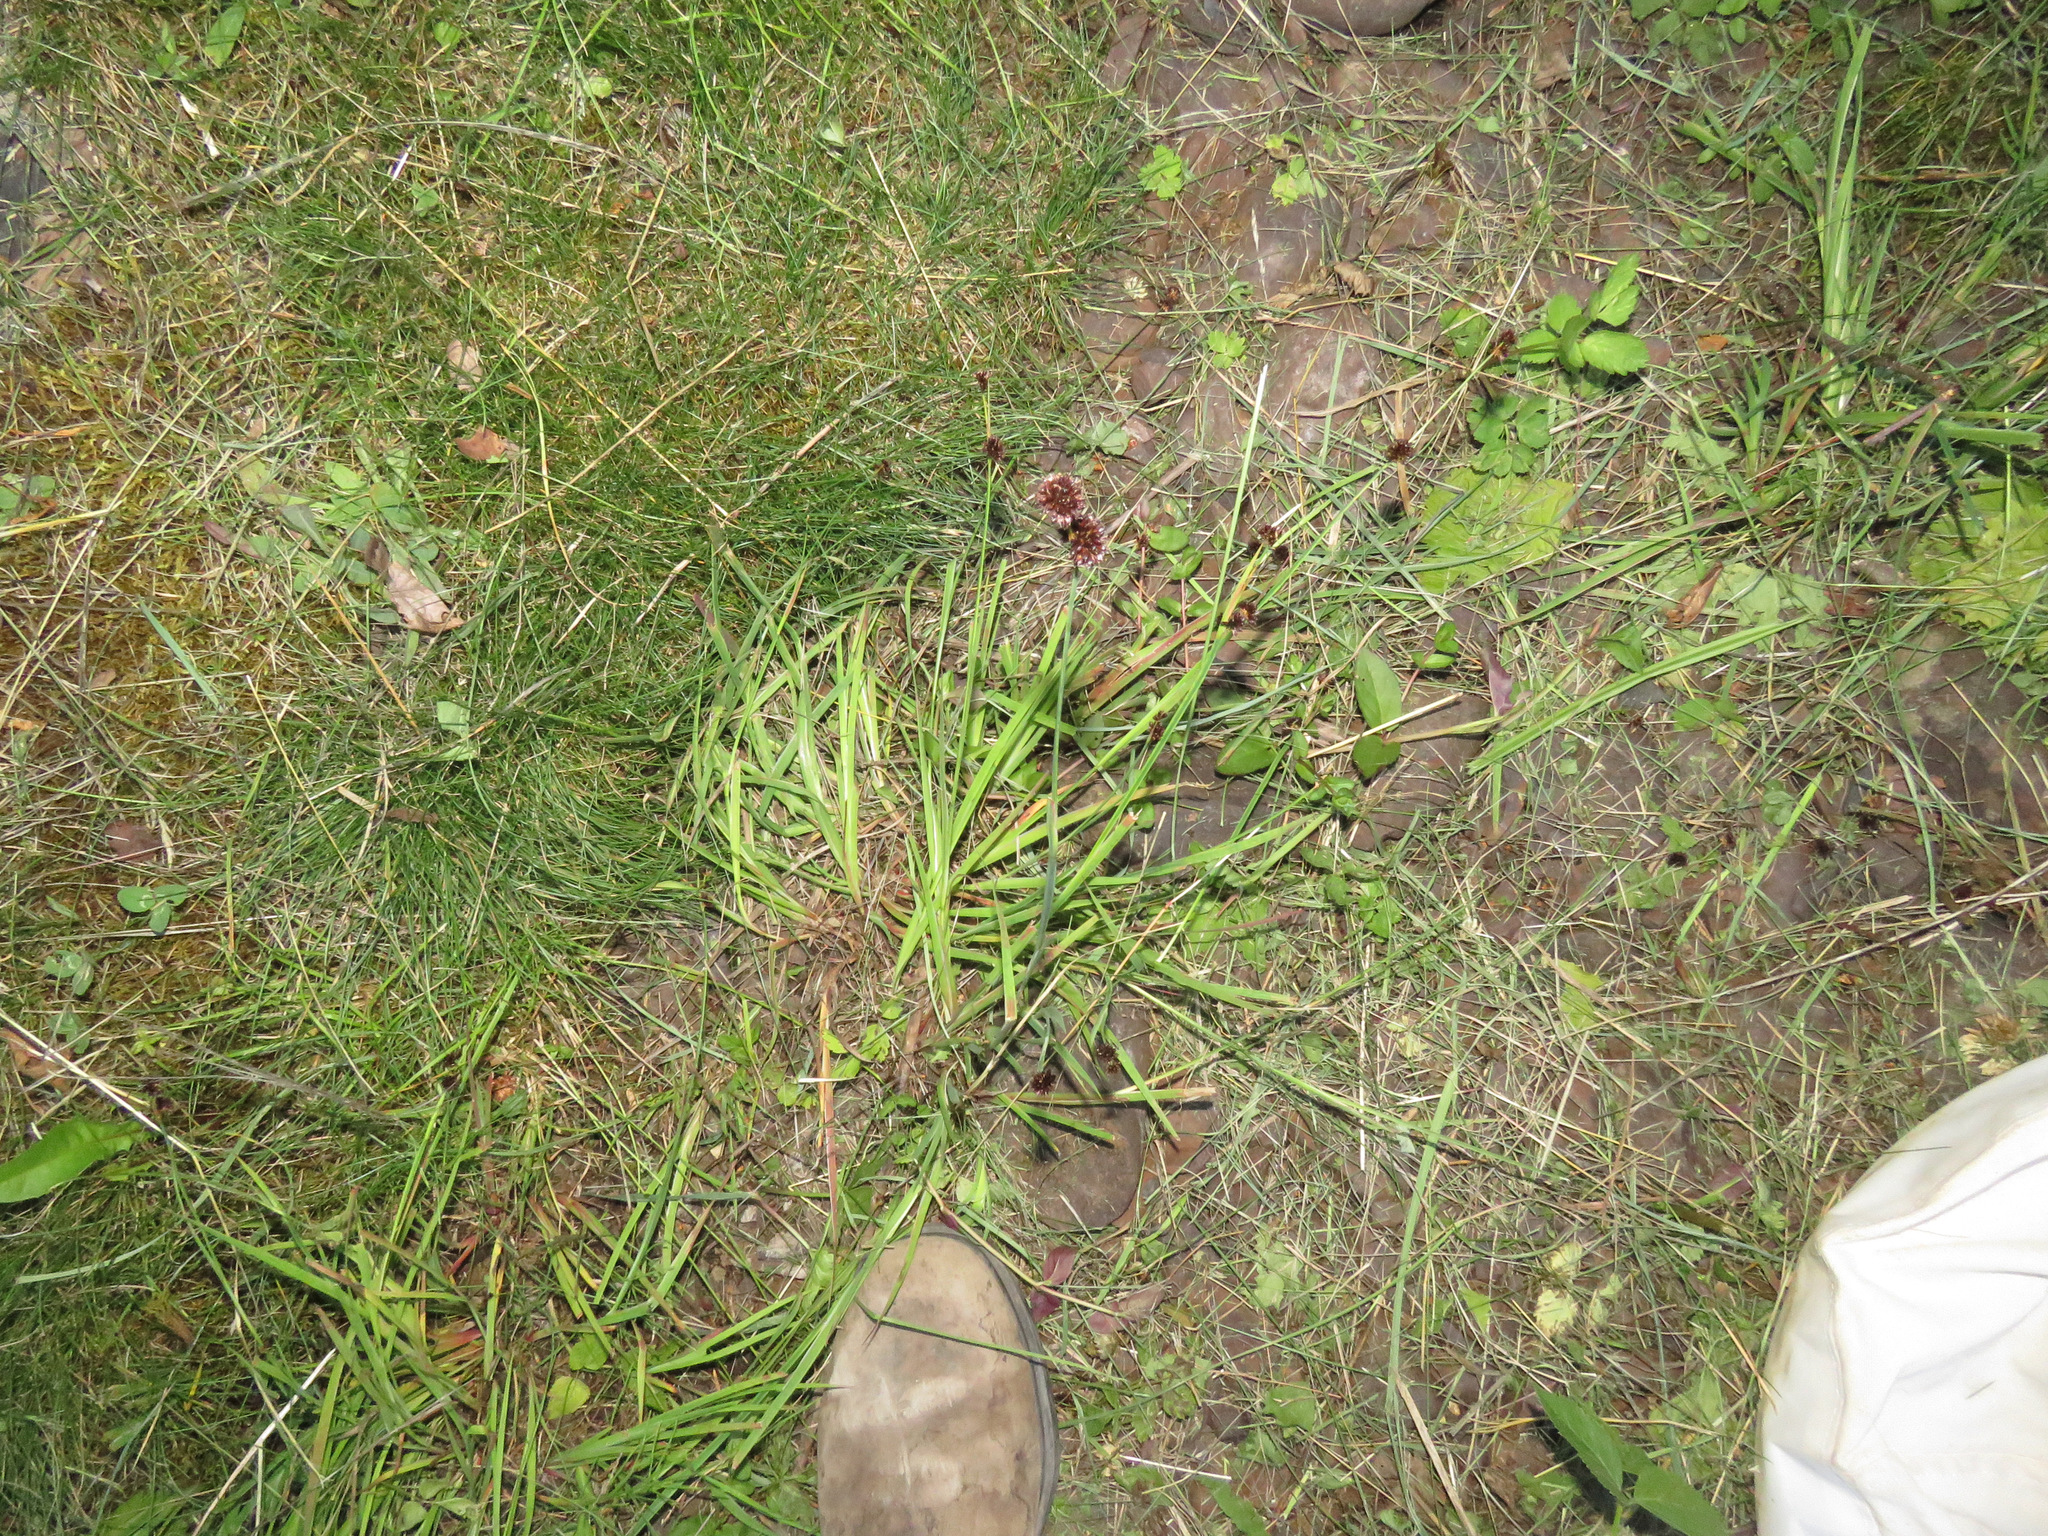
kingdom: Plantae
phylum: Tracheophyta
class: Liliopsida
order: Poales
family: Juncaceae
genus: Juncus
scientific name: Juncus ensifolius
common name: Sword-leaved rush
